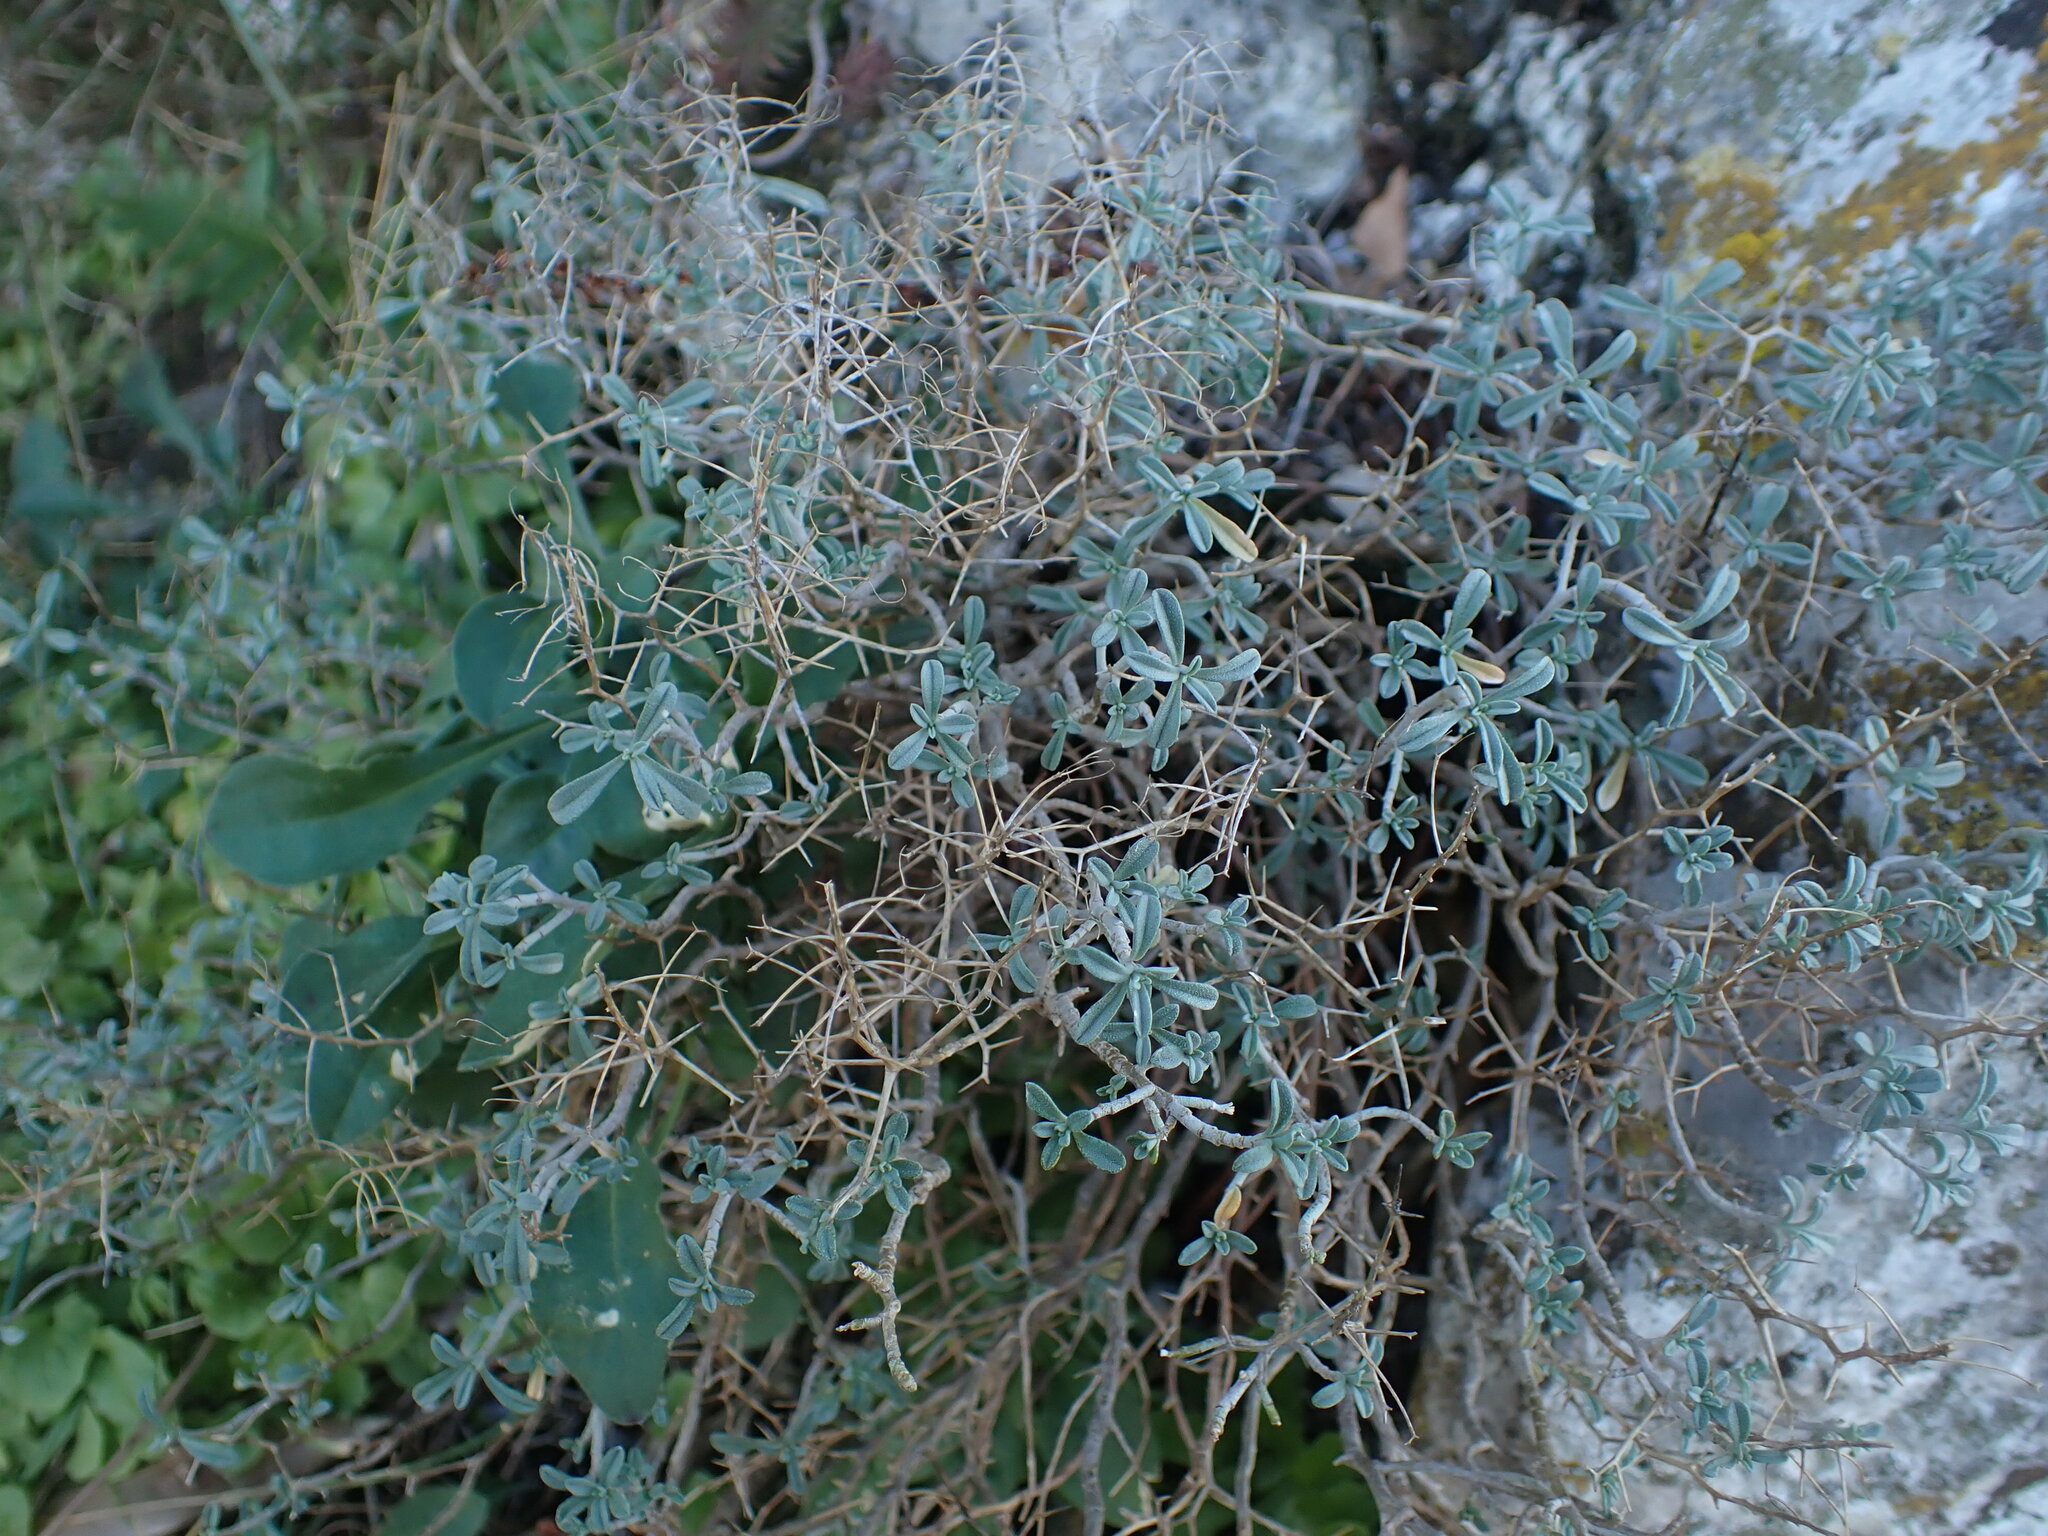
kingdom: Plantae
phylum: Tracheophyta
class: Magnoliopsida
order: Brassicales
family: Brassicaceae
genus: Hormathophylla
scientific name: Hormathophylla spinosa
